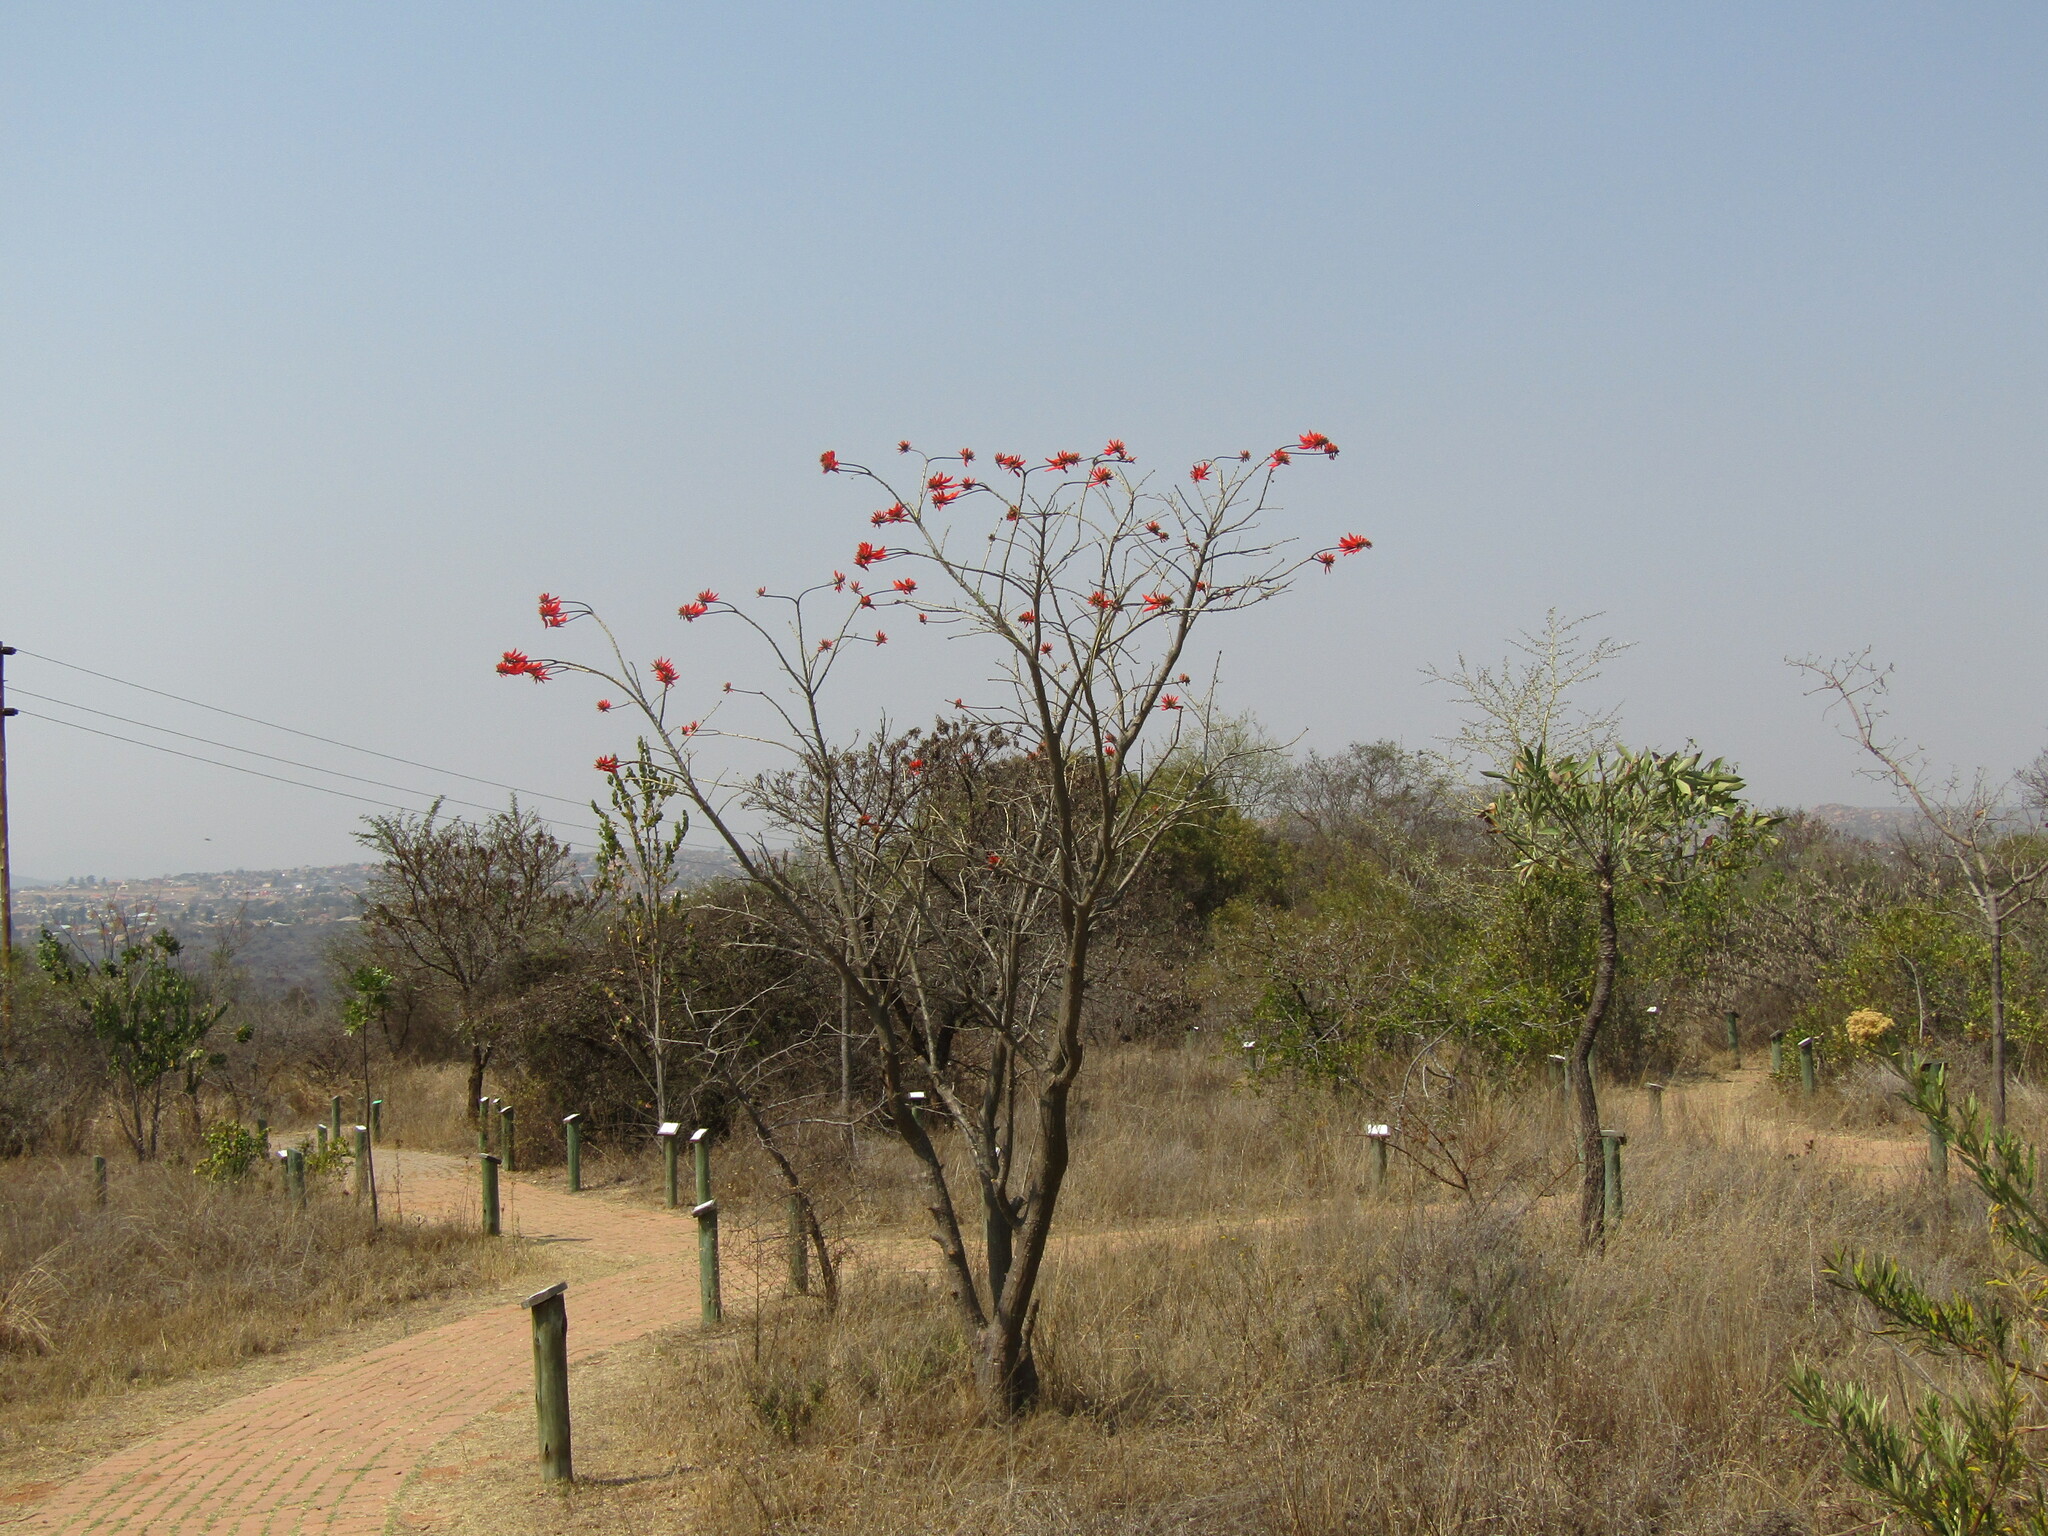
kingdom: Plantae
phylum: Tracheophyta
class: Magnoliopsida
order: Fabales
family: Fabaceae
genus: Erythrina
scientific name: Erythrina lysistemon
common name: Common coral tree
